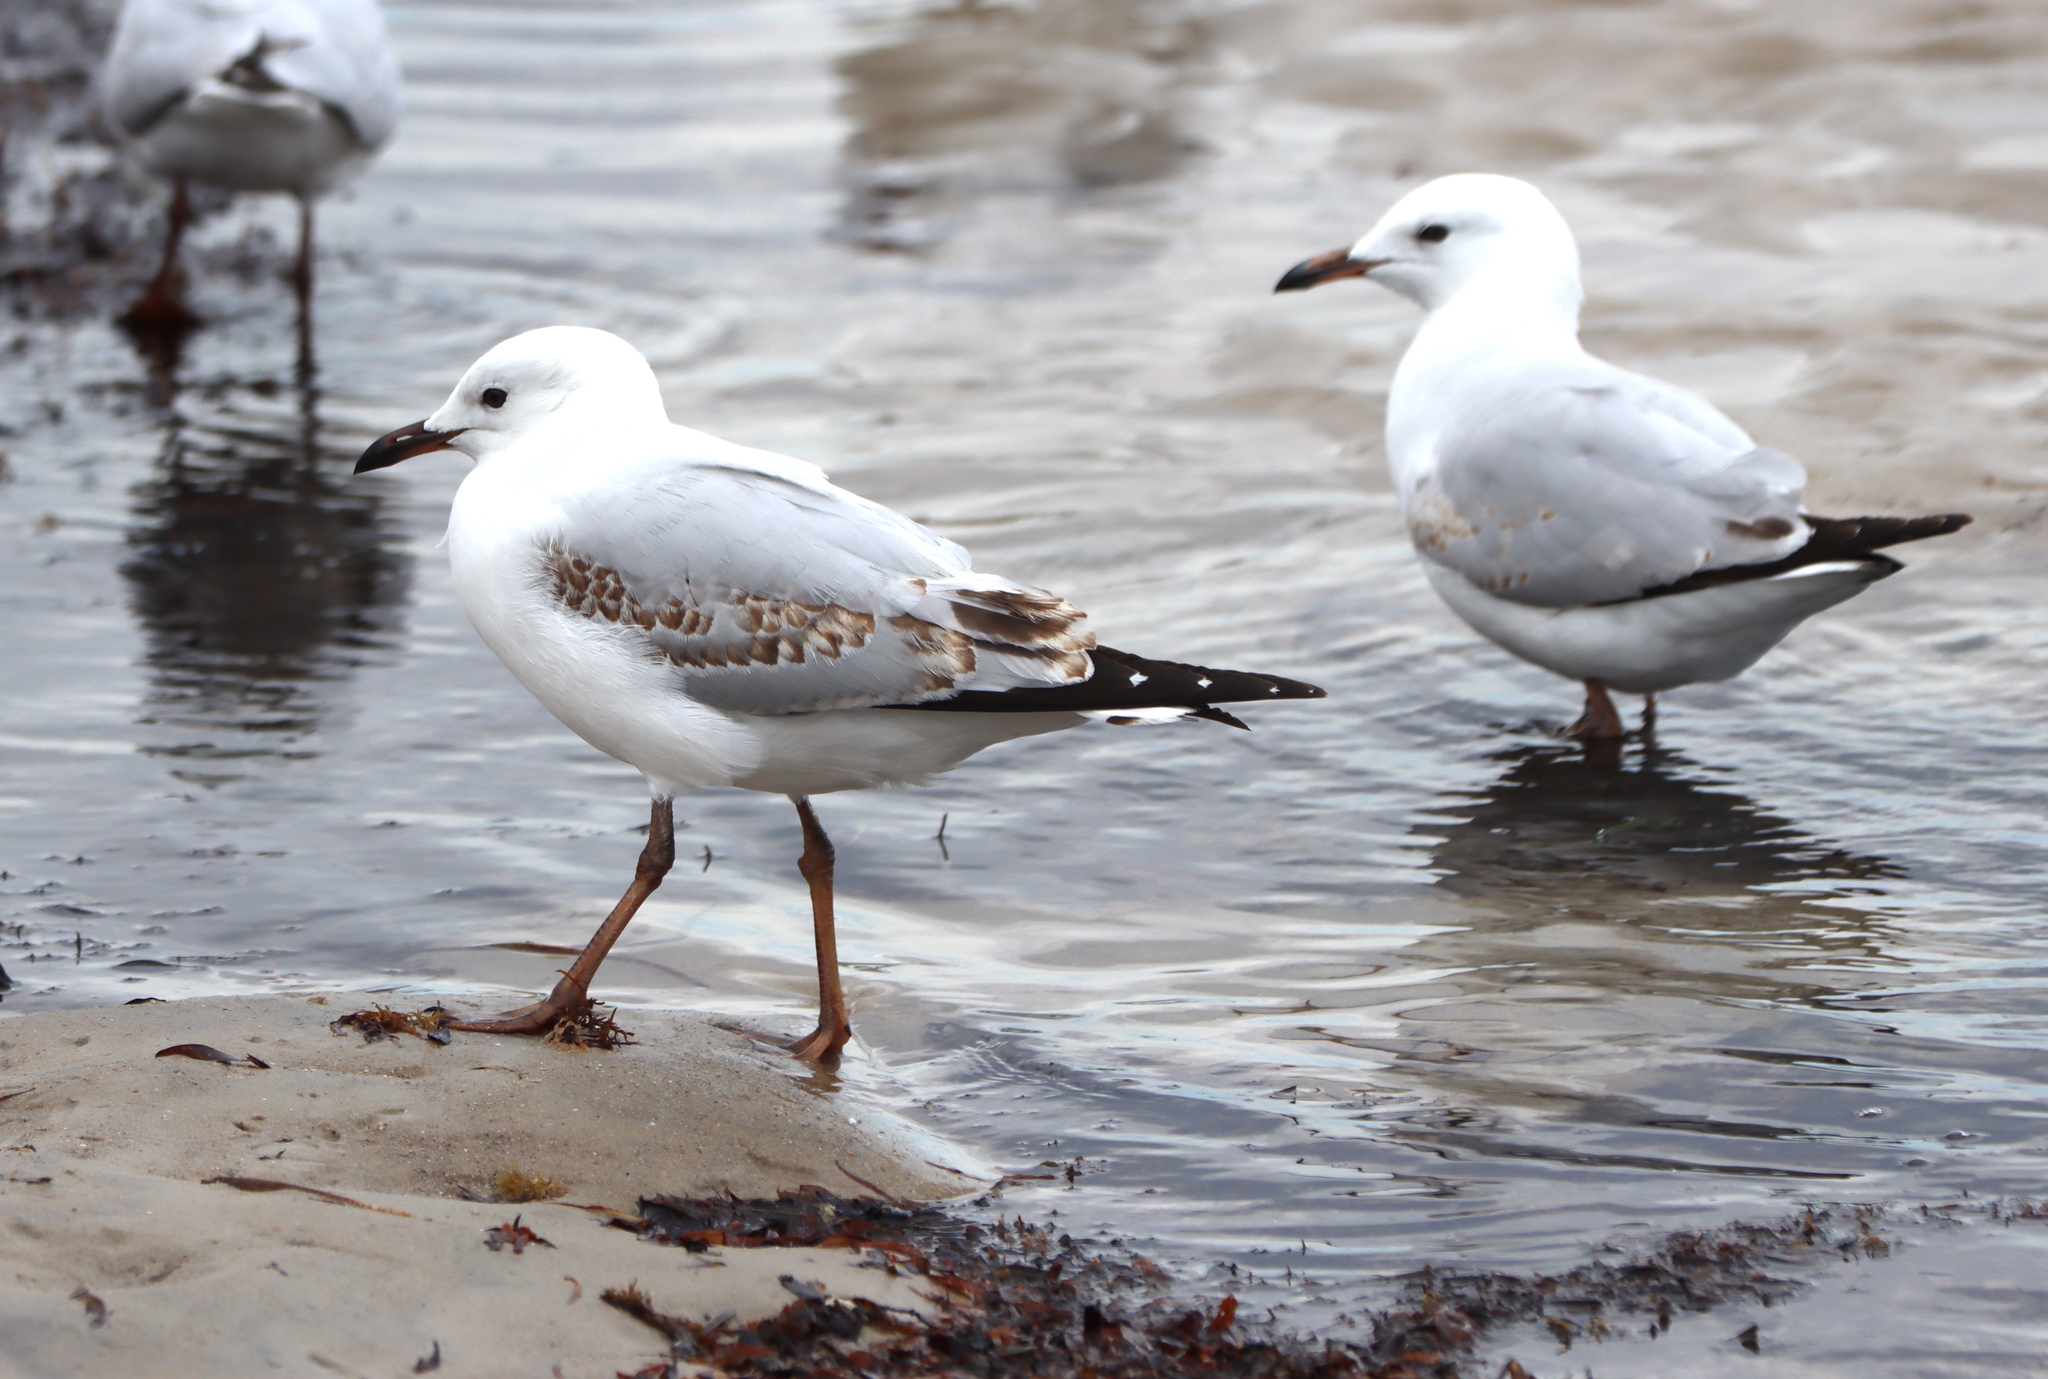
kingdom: Animalia
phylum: Chordata
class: Aves
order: Charadriiformes
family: Laridae
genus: Chroicocephalus
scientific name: Chroicocephalus novaehollandiae
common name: Silver gull
